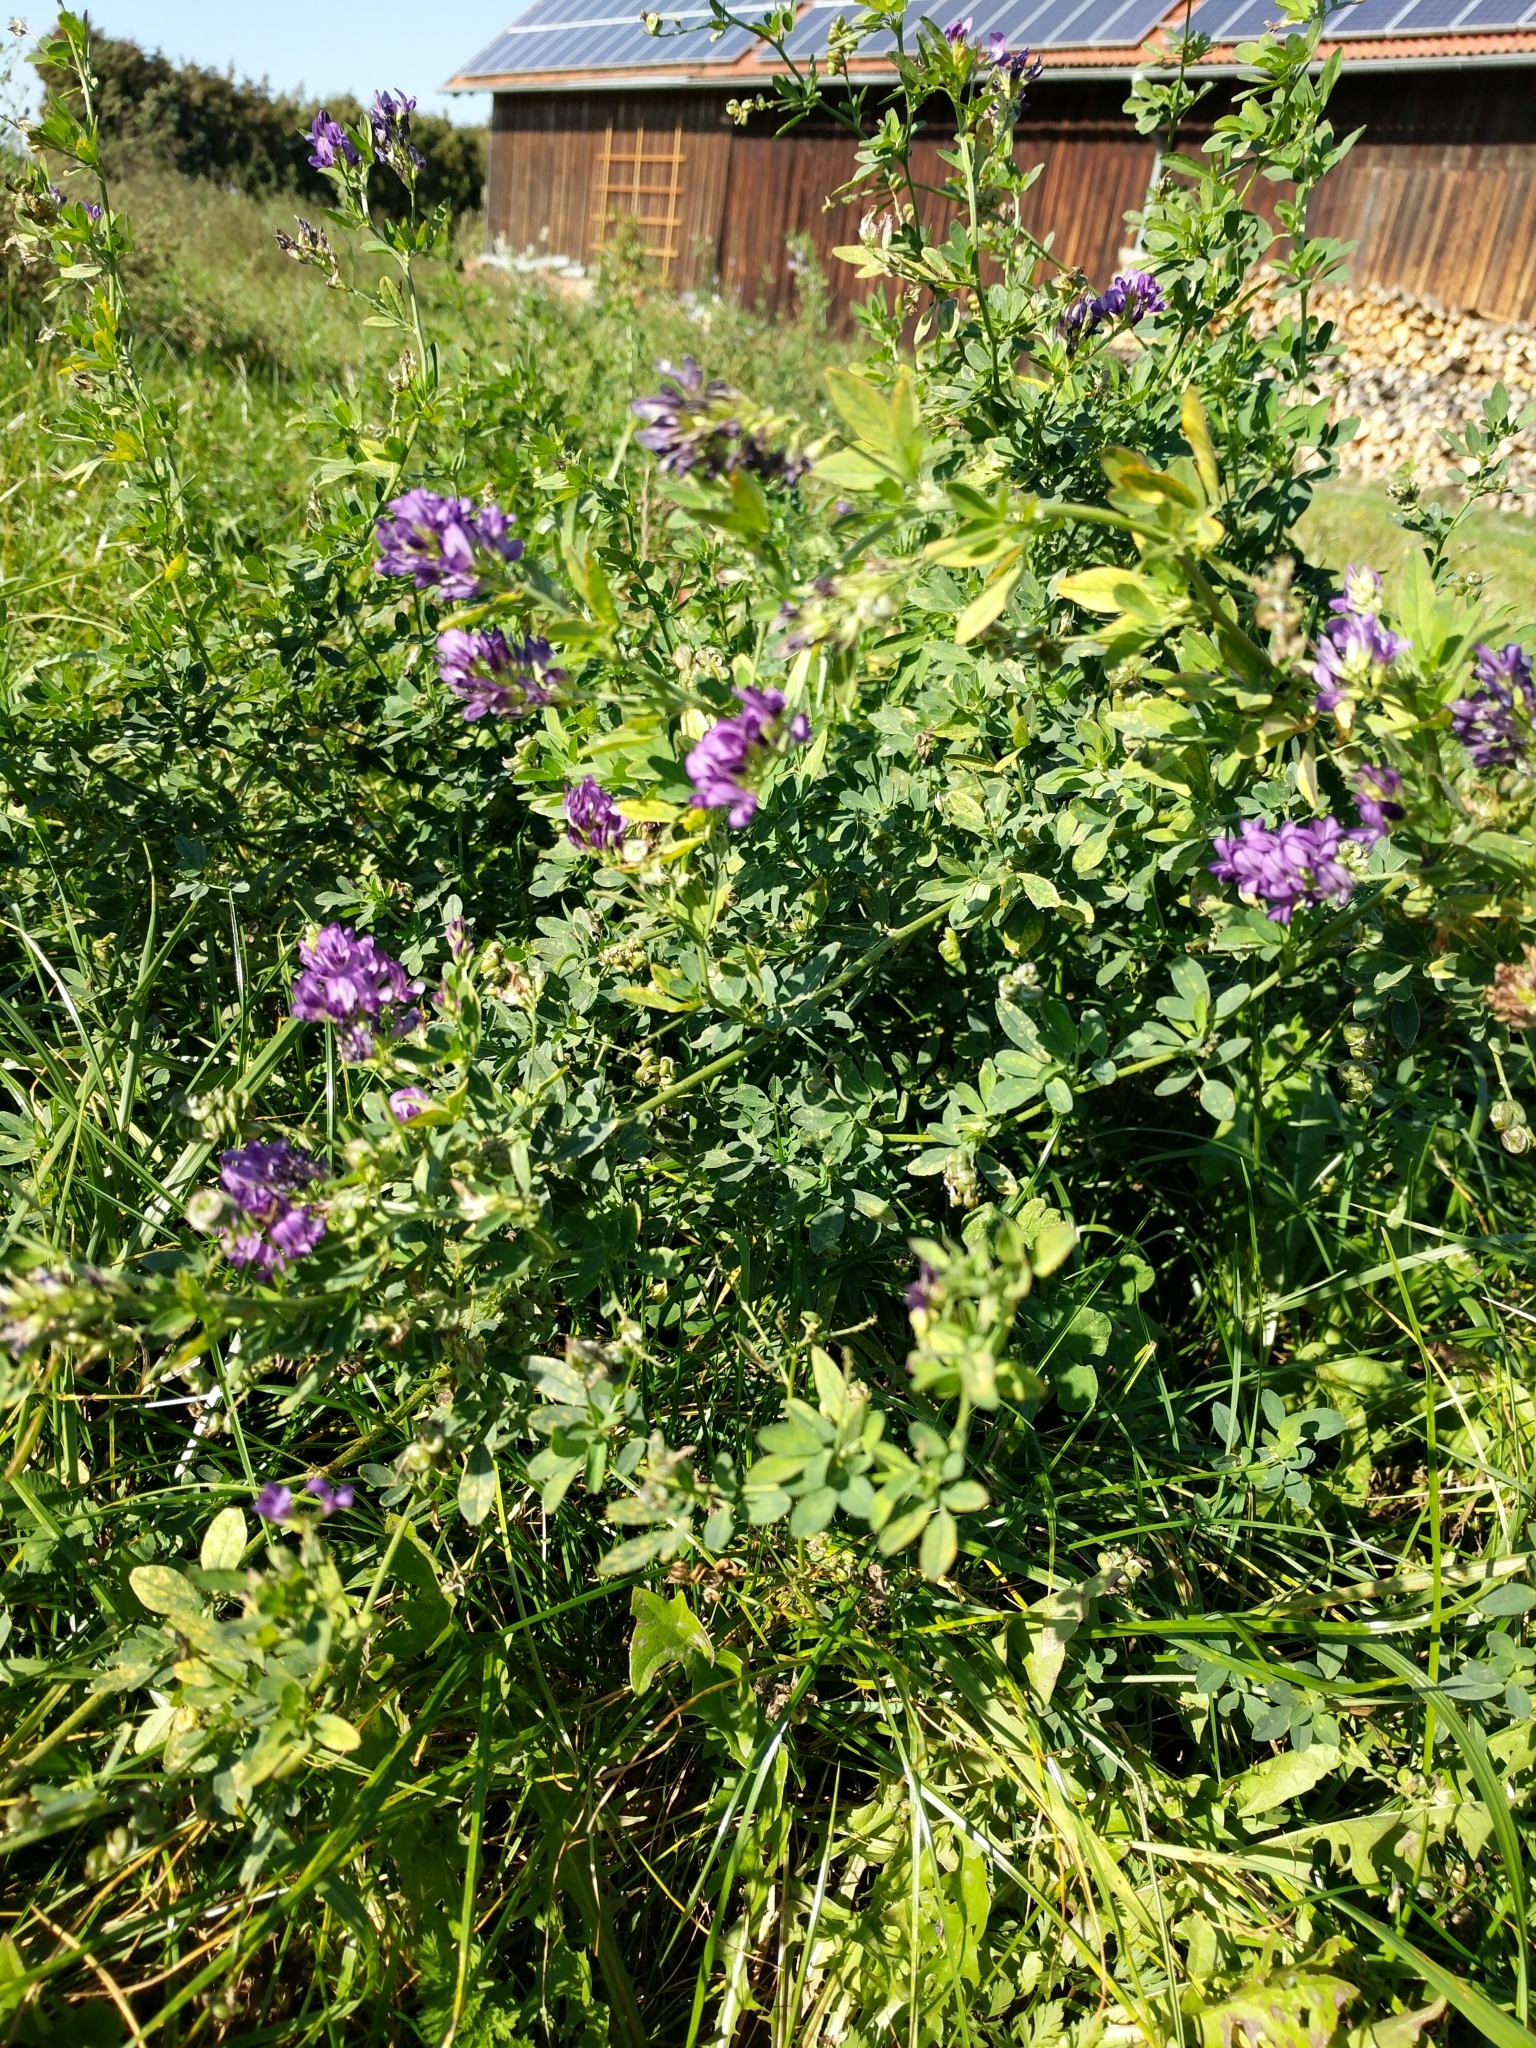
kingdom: Plantae
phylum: Tracheophyta
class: Magnoliopsida
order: Fabales
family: Fabaceae
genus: Medicago
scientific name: Medicago sativa
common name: Alfalfa
